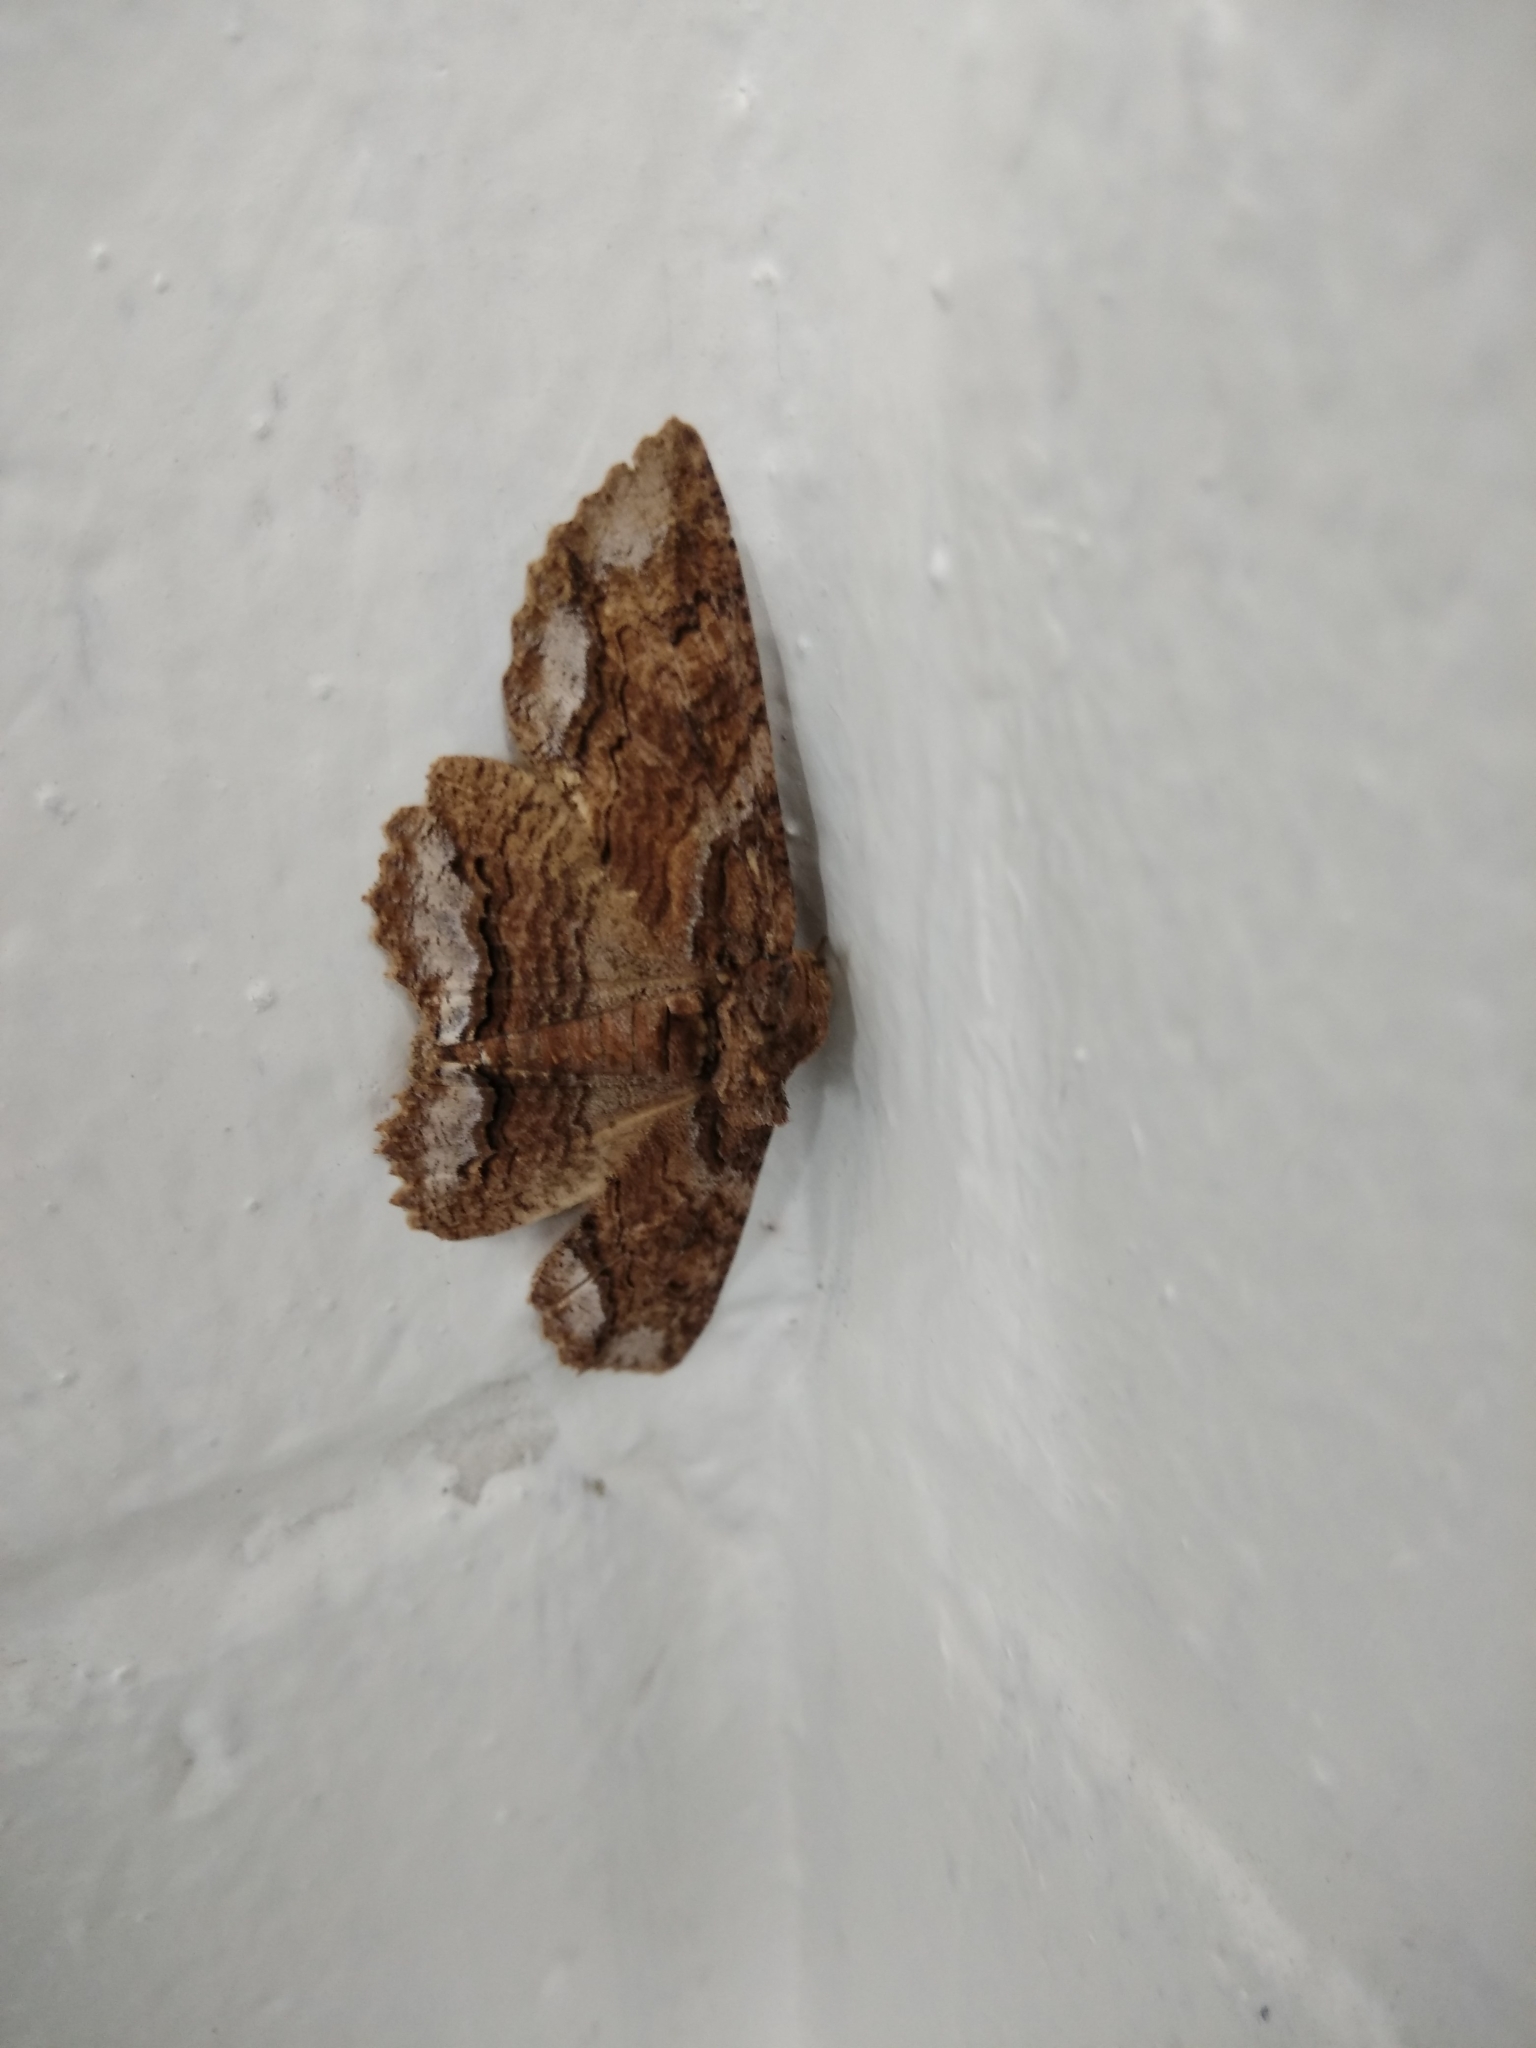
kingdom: Animalia
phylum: Arthropoda
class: Insecta
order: Lepidoptera
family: Erebidae
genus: Zale
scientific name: Zale lunata
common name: Lunate zale moth
